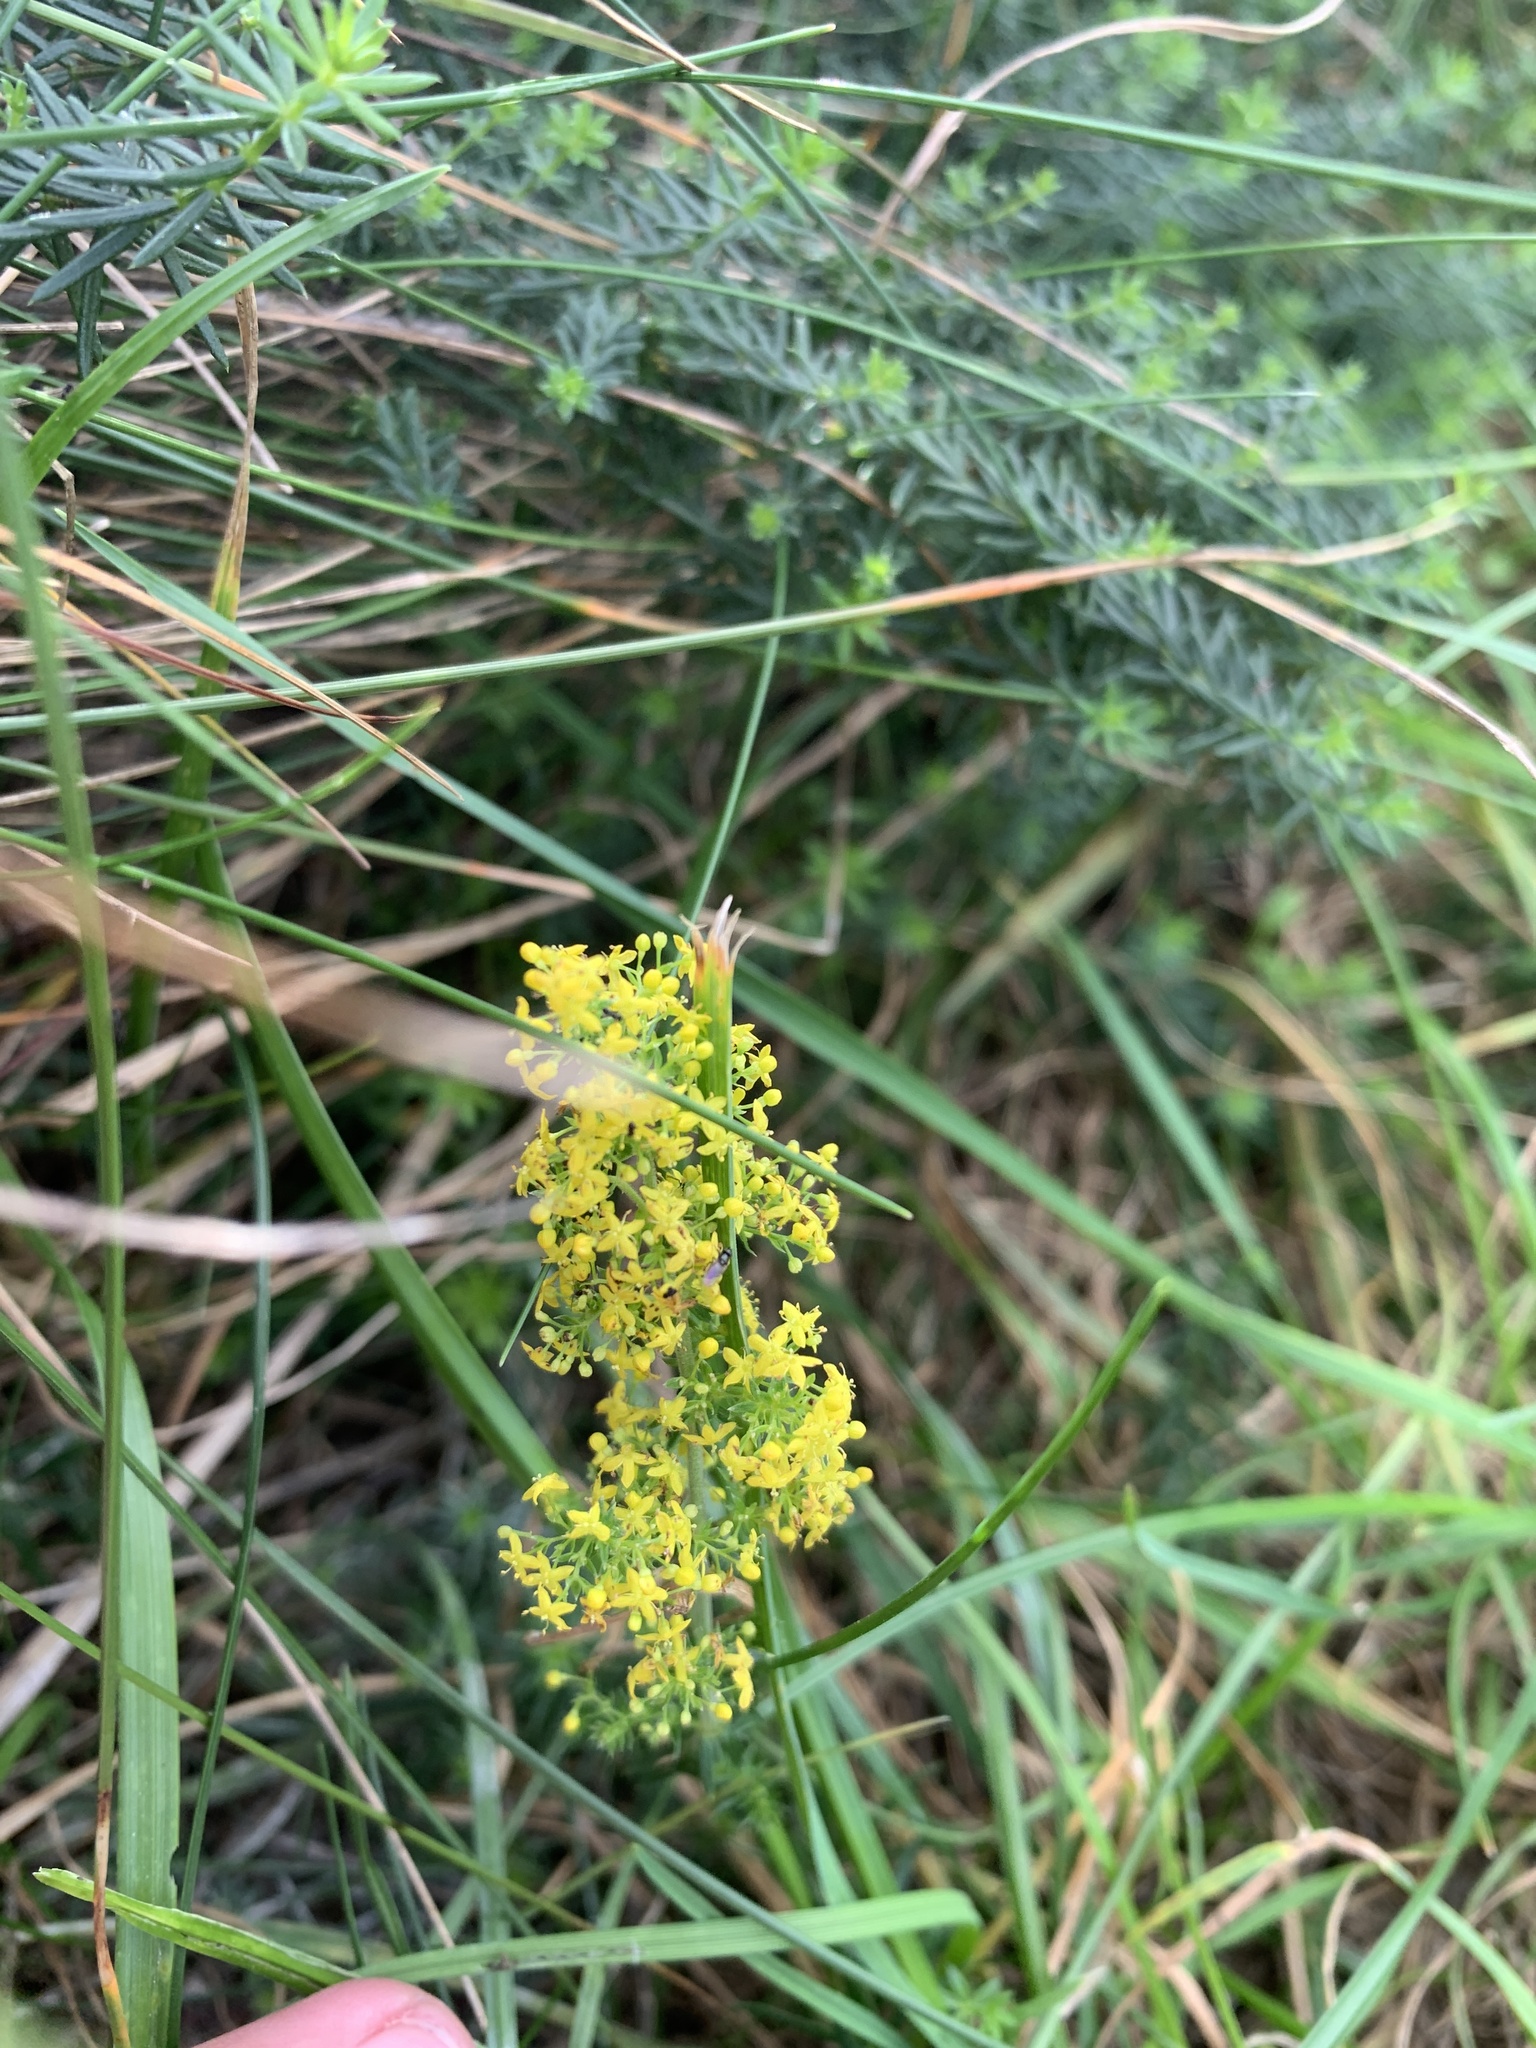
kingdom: Plantae
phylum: Tracheophyta
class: Magnoliopsida
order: Gentianales
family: Rubiaceae
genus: Galium
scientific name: Galium verum
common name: Lady's bedstraw
